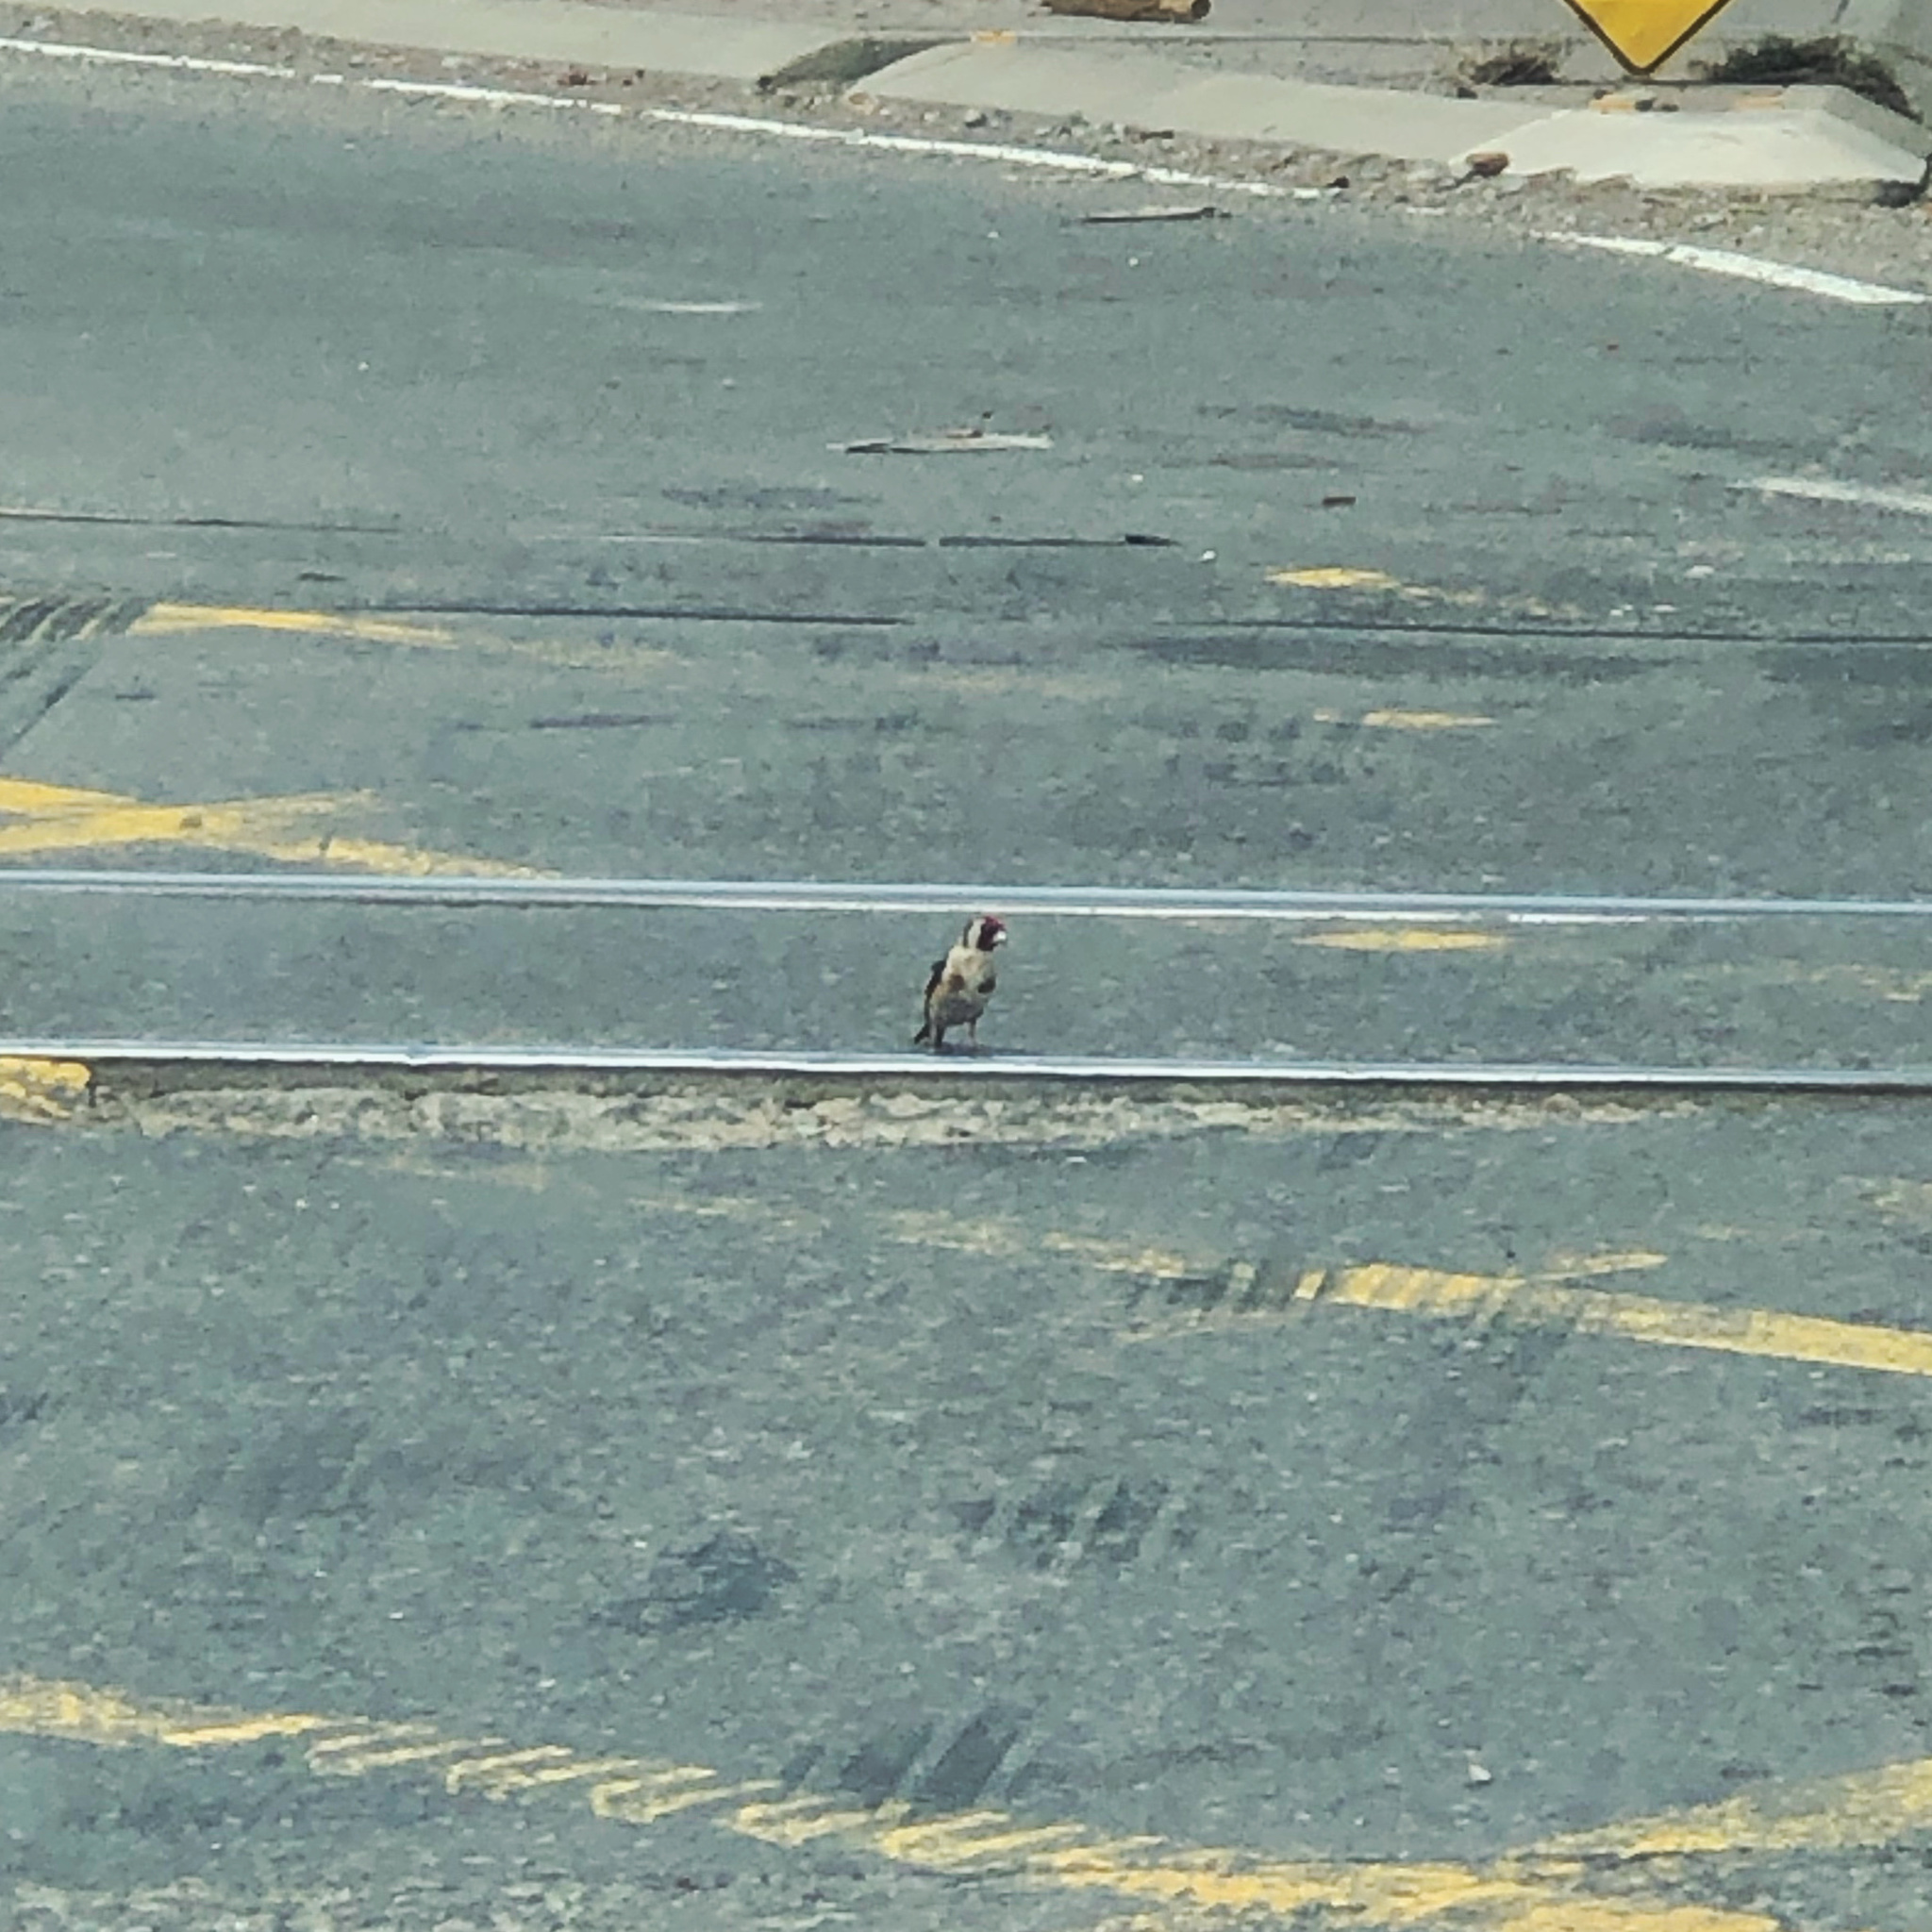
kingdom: Animalia
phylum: Chordata
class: Aves
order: Passeriformes
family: Fringillidae
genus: Carduelis
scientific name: Carduelis carduelis
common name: European goldfinch
